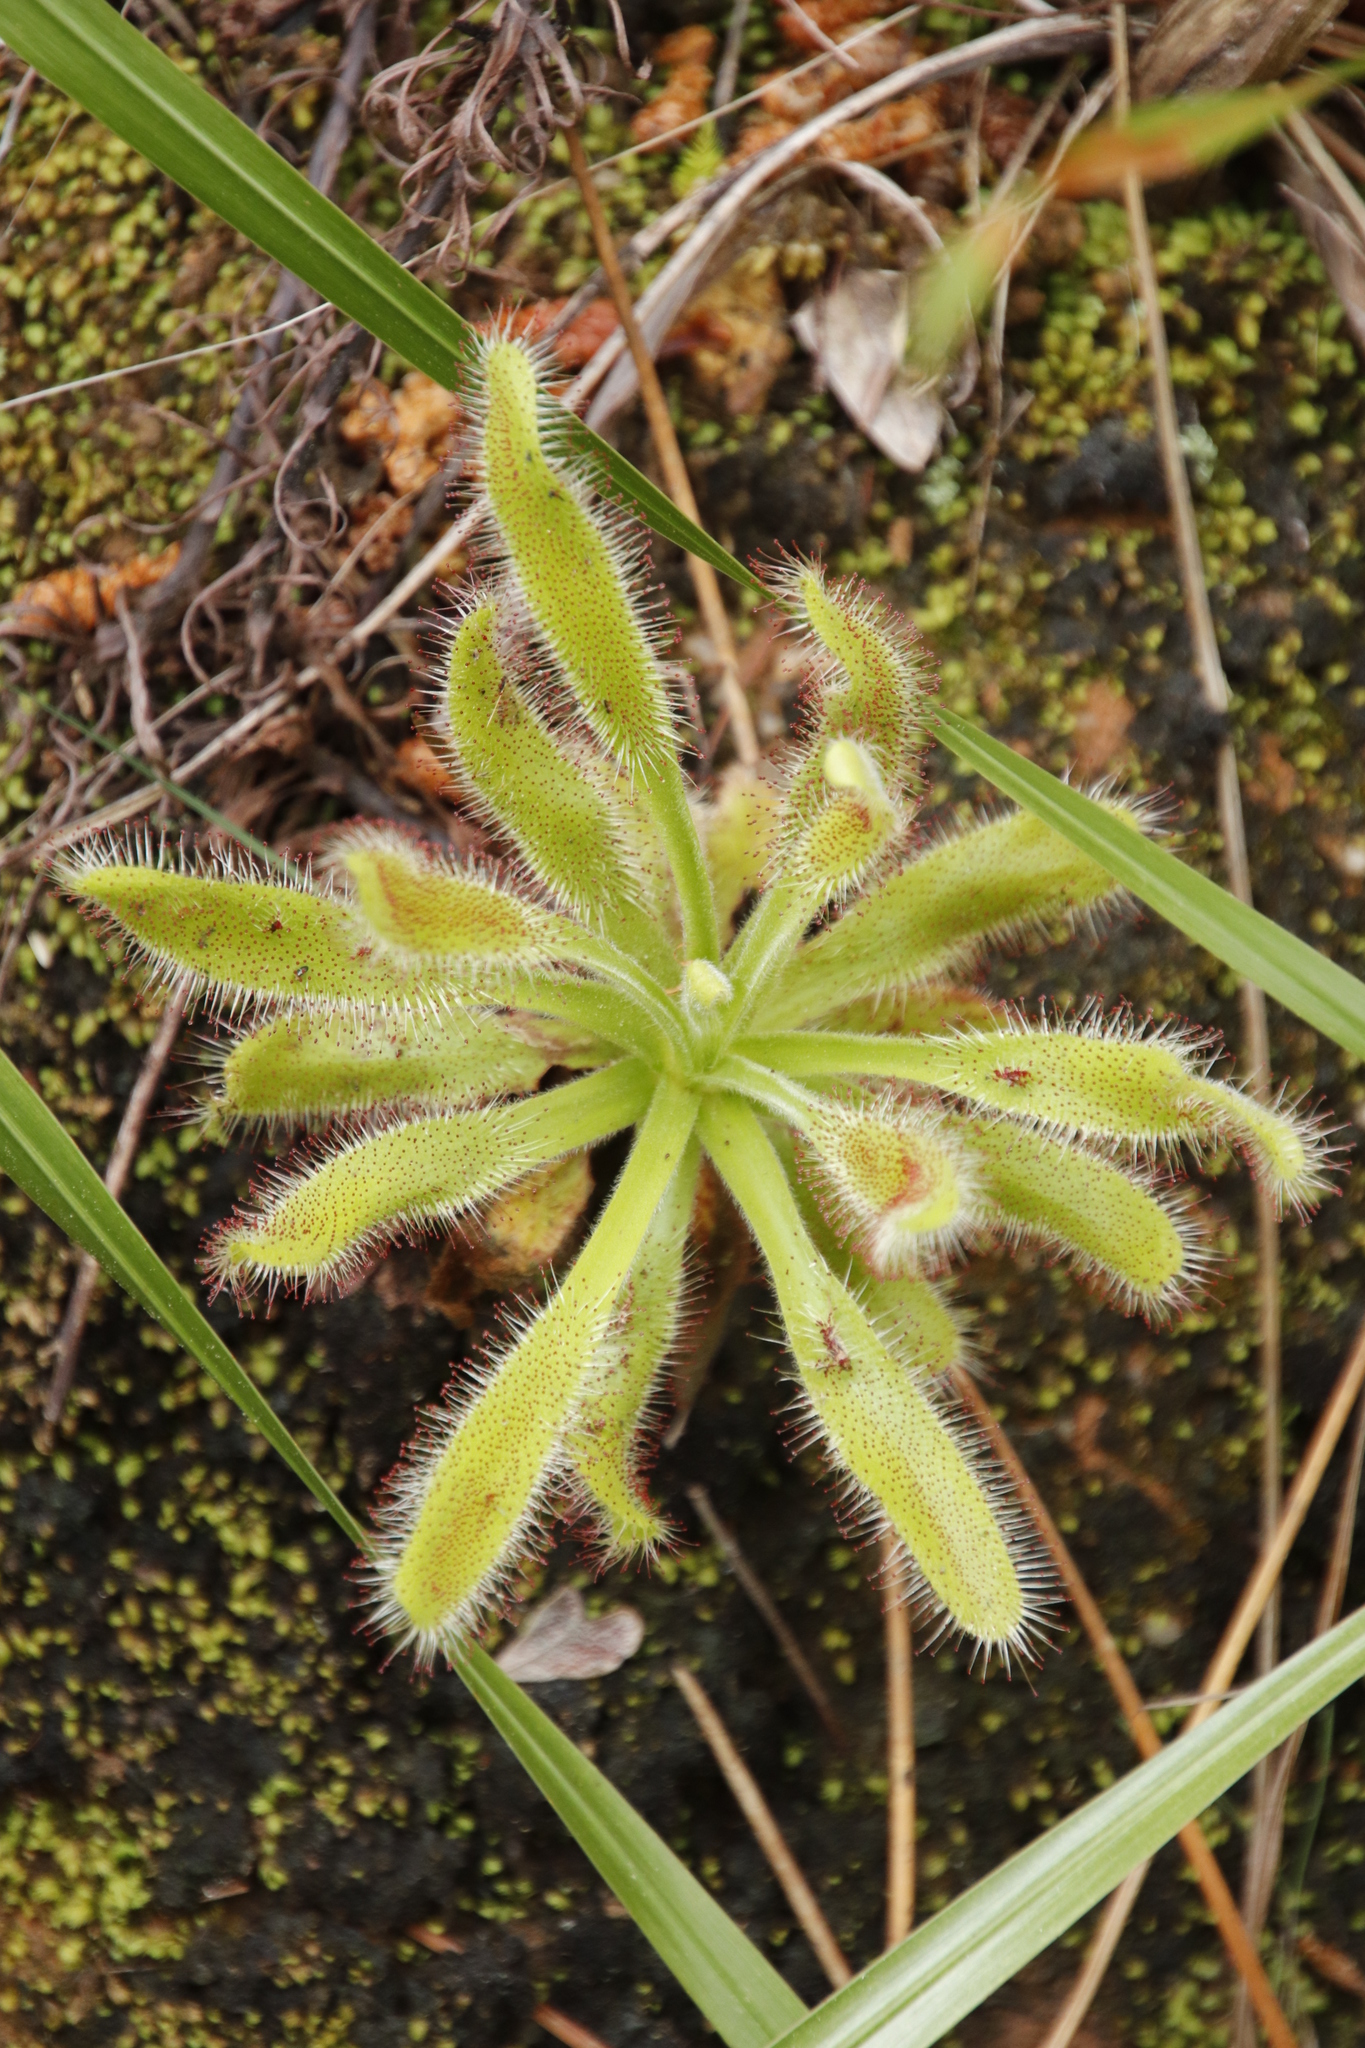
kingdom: Plantae
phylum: Tracheophyta
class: Magnoliopsida
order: Caryophyllales
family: Droseraceae
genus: Drosera
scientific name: Drosera hilaris
